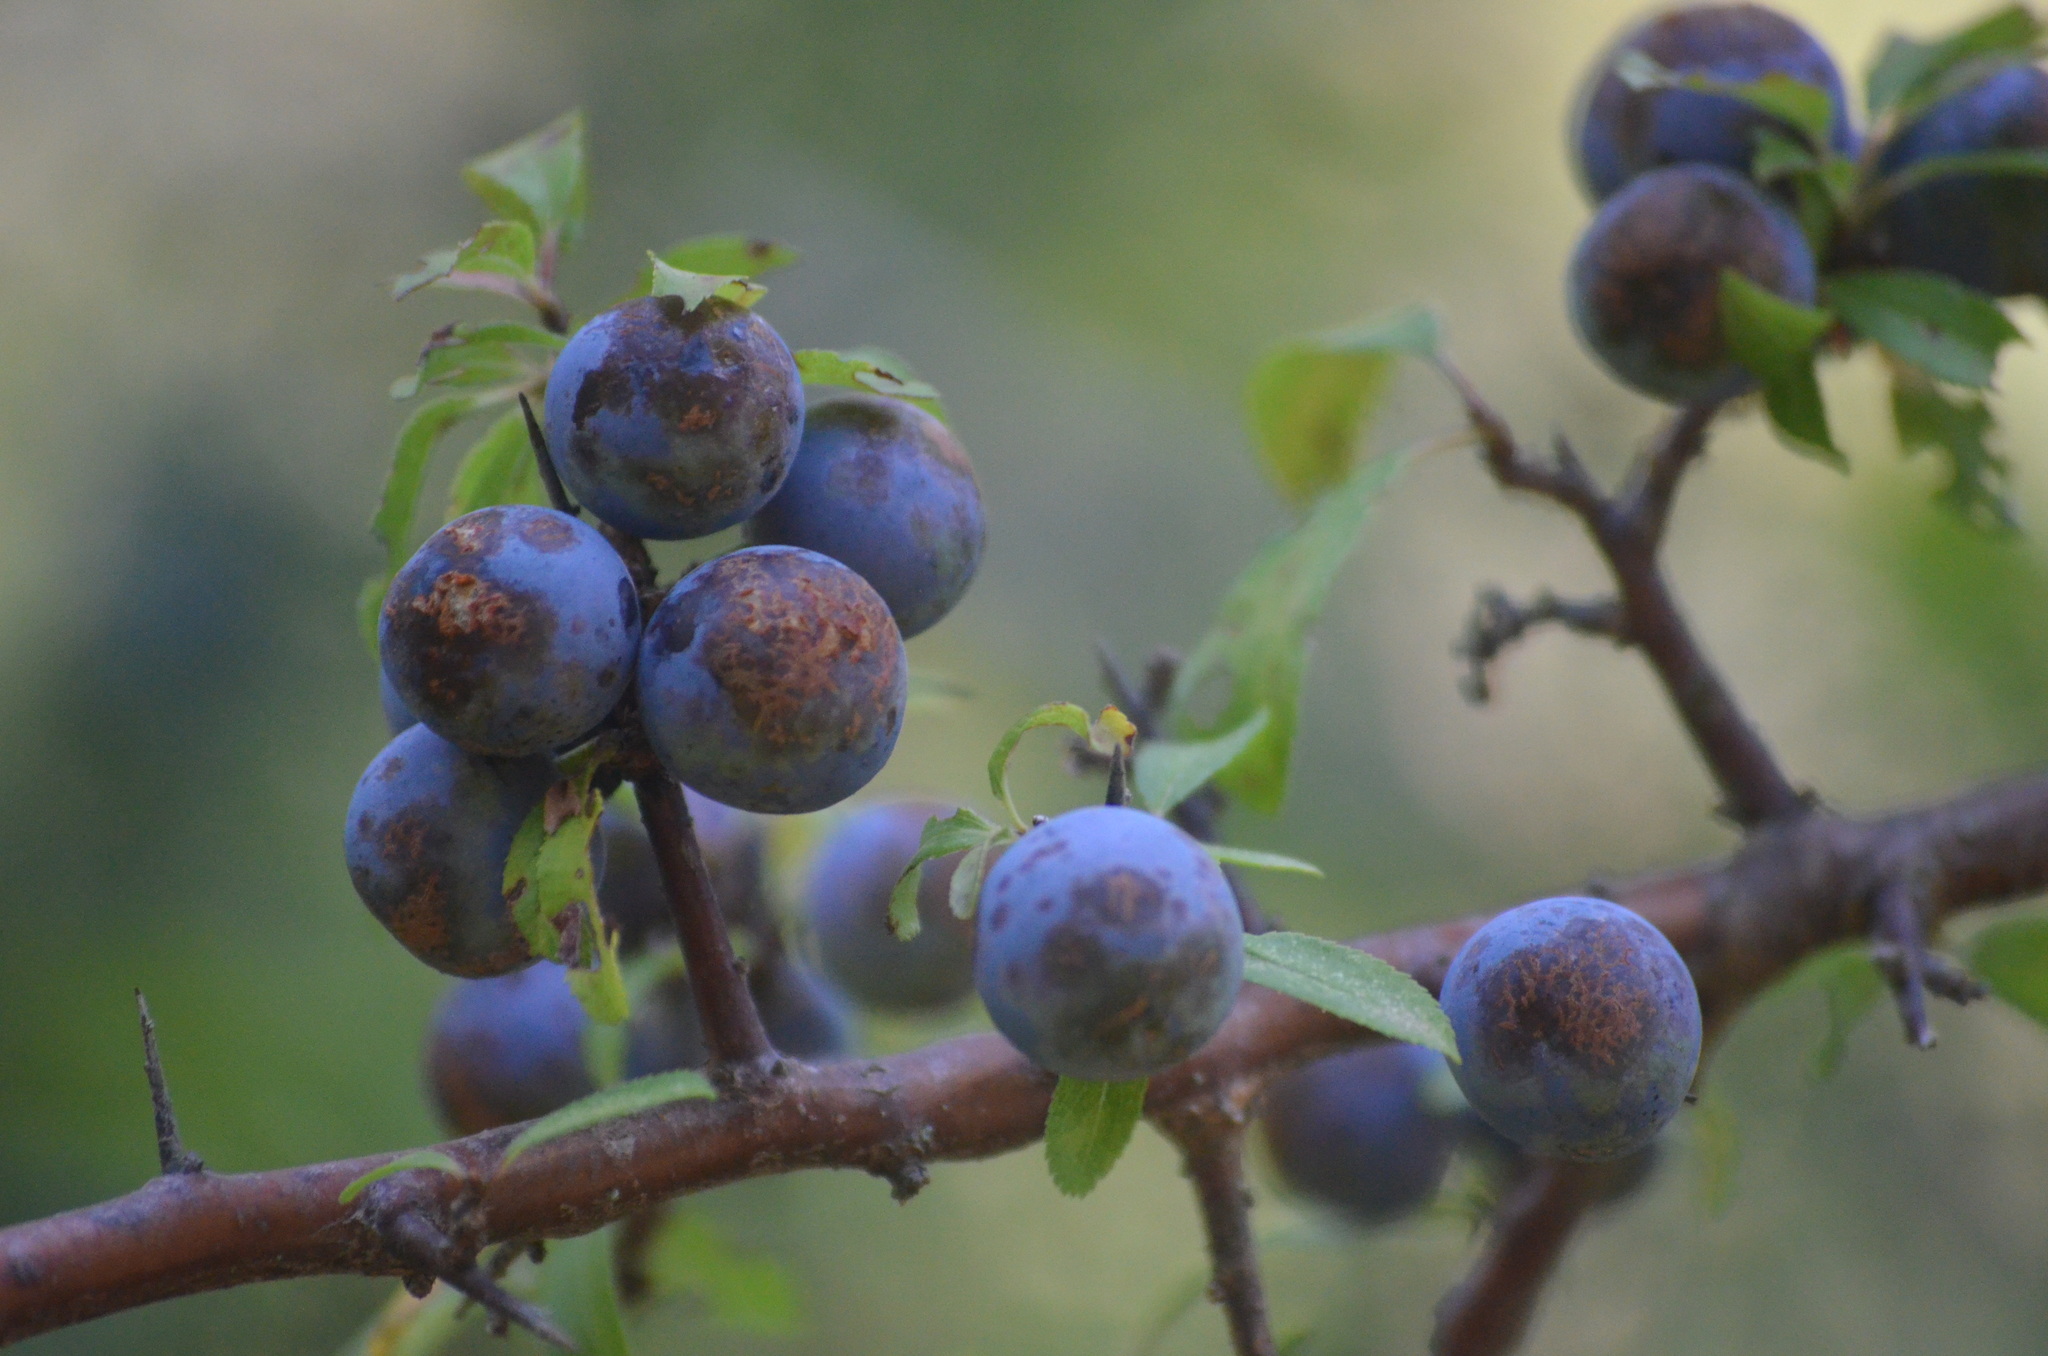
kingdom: Plantae
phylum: Tracheophyta
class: Magnoliopsida
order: Rosales
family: Rosaceae
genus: Prunus
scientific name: Prunus spinosa
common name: Blackthorn
